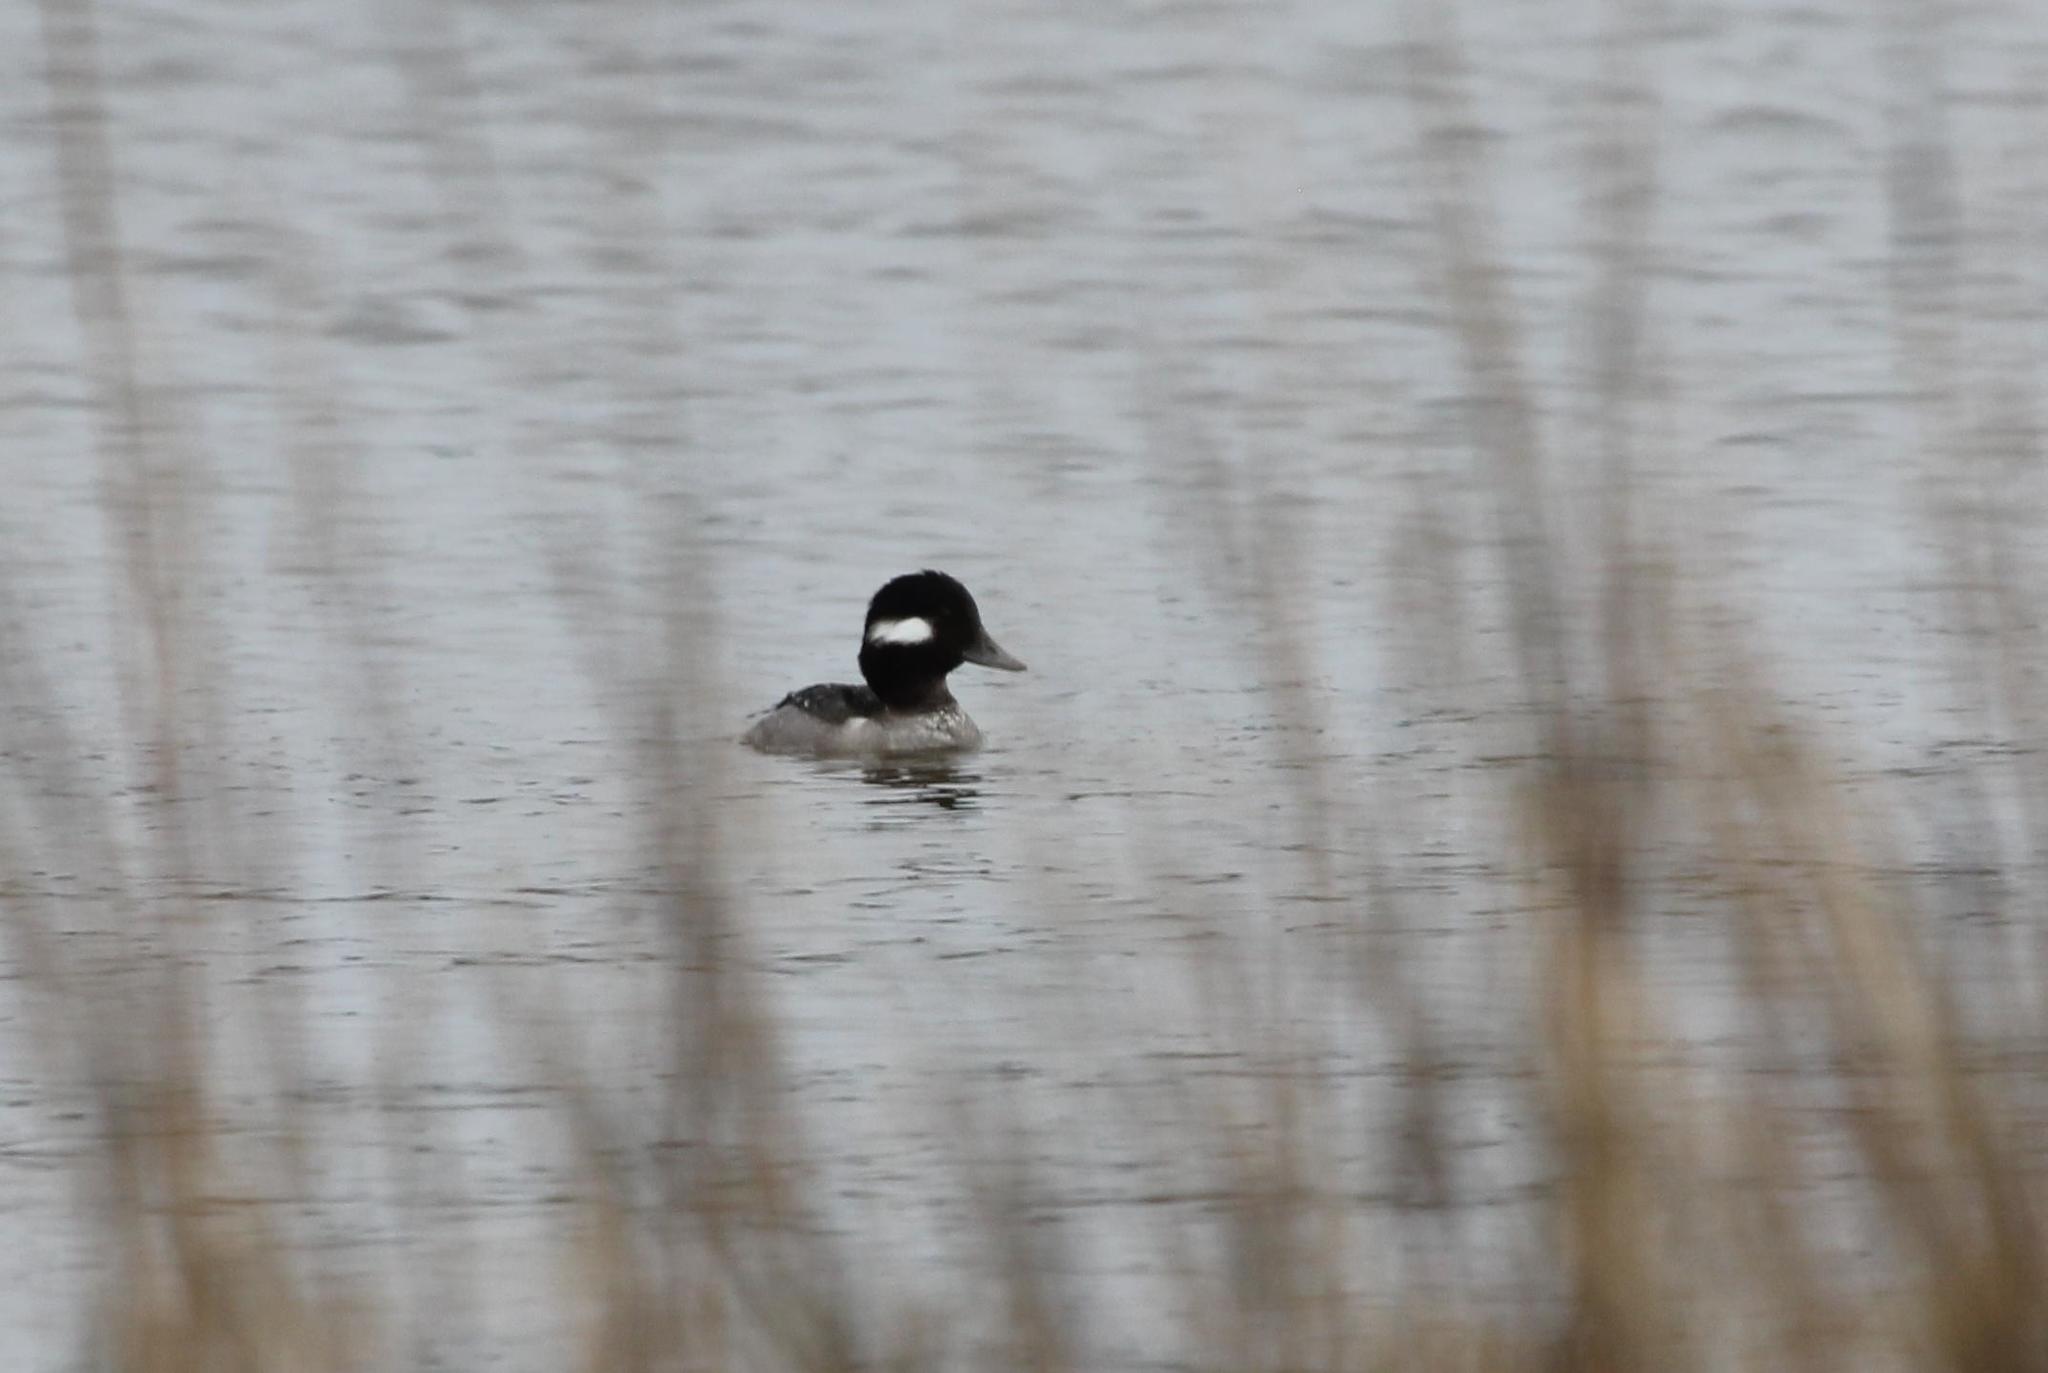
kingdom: Animalia
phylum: Chordata
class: Aves
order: Anseriformes
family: Anatidae
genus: Bucephala
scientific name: Bucephala albeola
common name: Bufflehead
